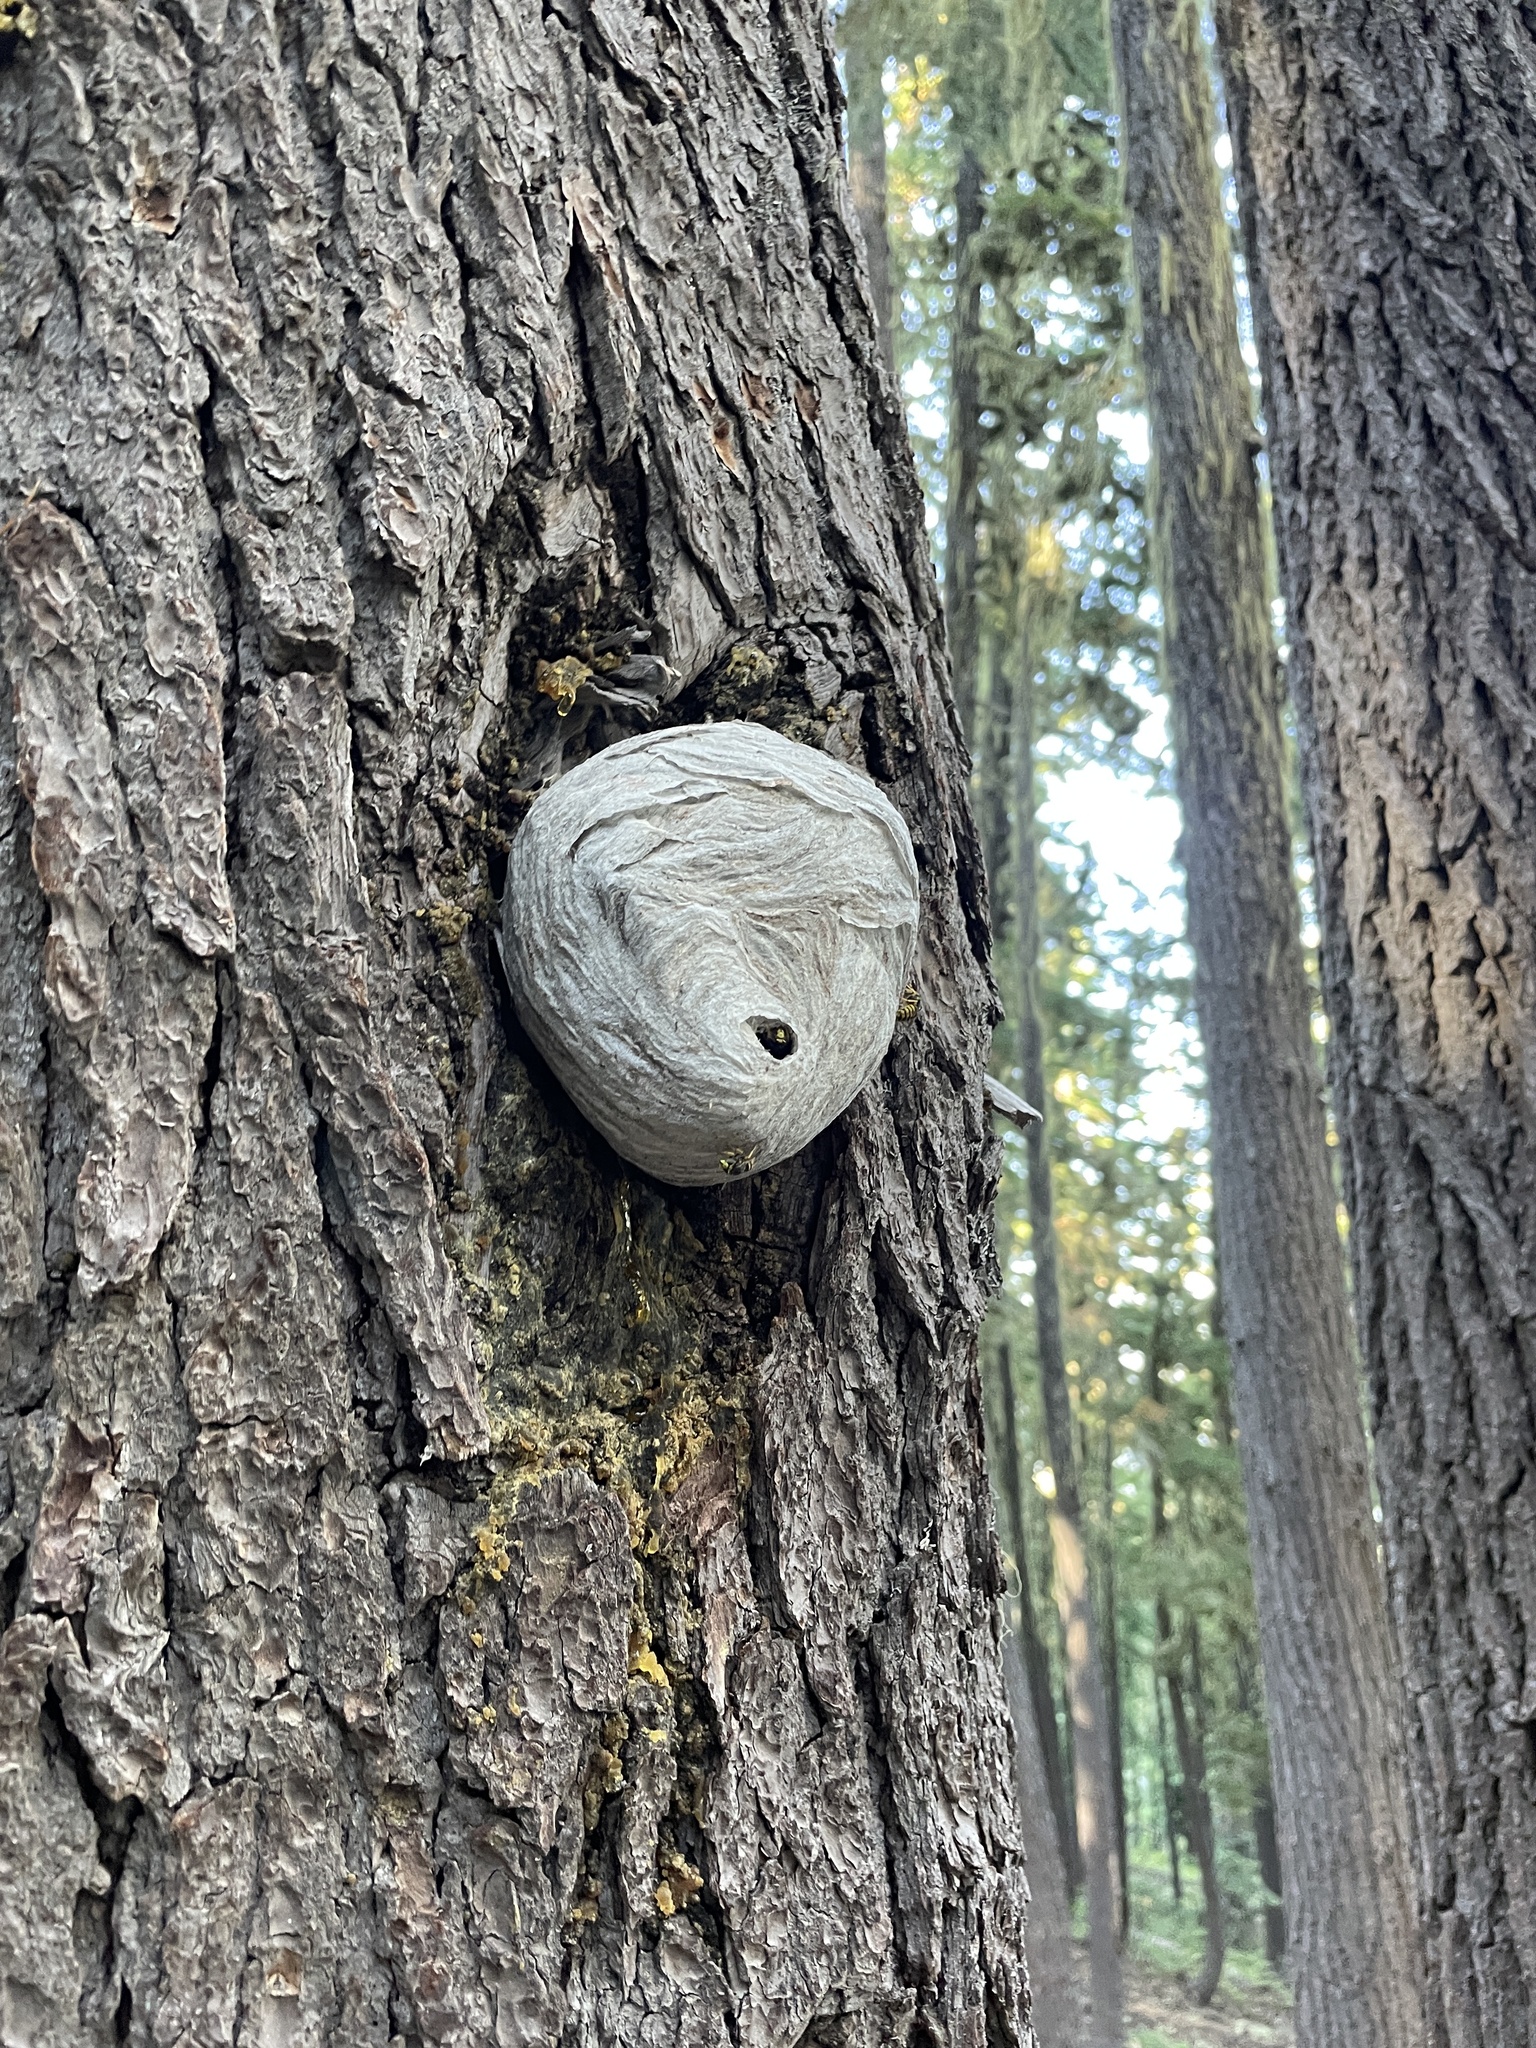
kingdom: Animalia
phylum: Arthropoda
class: Insecta
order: Hymenoptera
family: Vespidae
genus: Dolichovespula
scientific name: Dolichovespula arenaria
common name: Aerial yellowjacket
